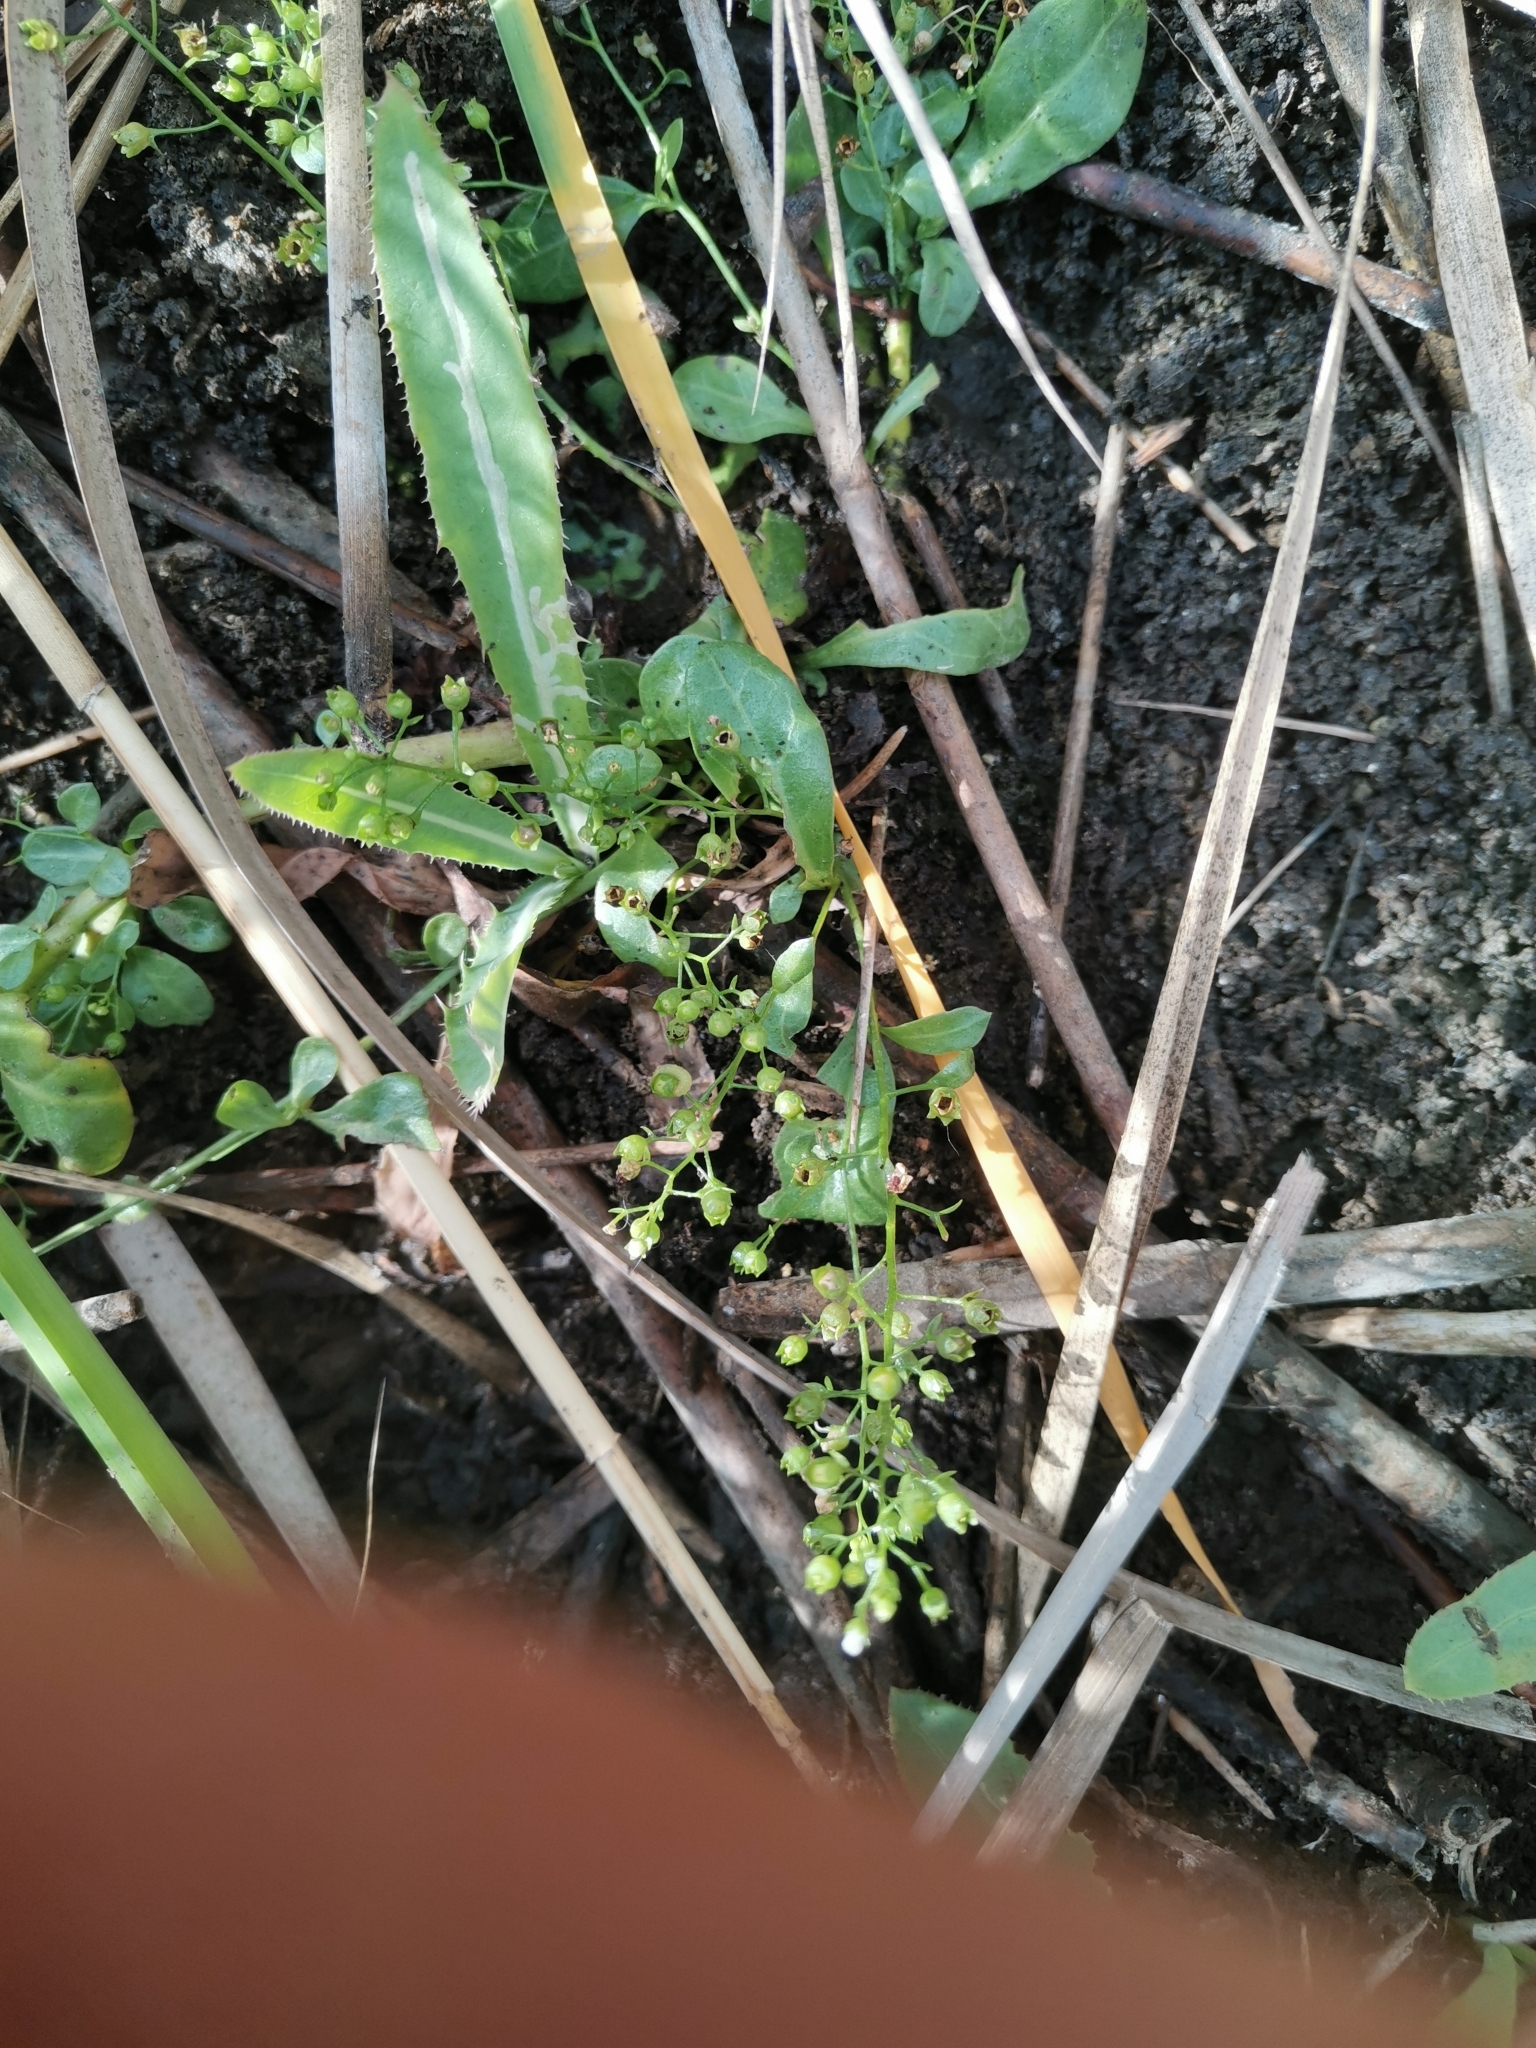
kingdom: Plantae
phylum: Tracheophyta
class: Magnoliopsida
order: Ericales
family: Primulaceae
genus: Samolus
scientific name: Samolus valerandi
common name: Brookweed
